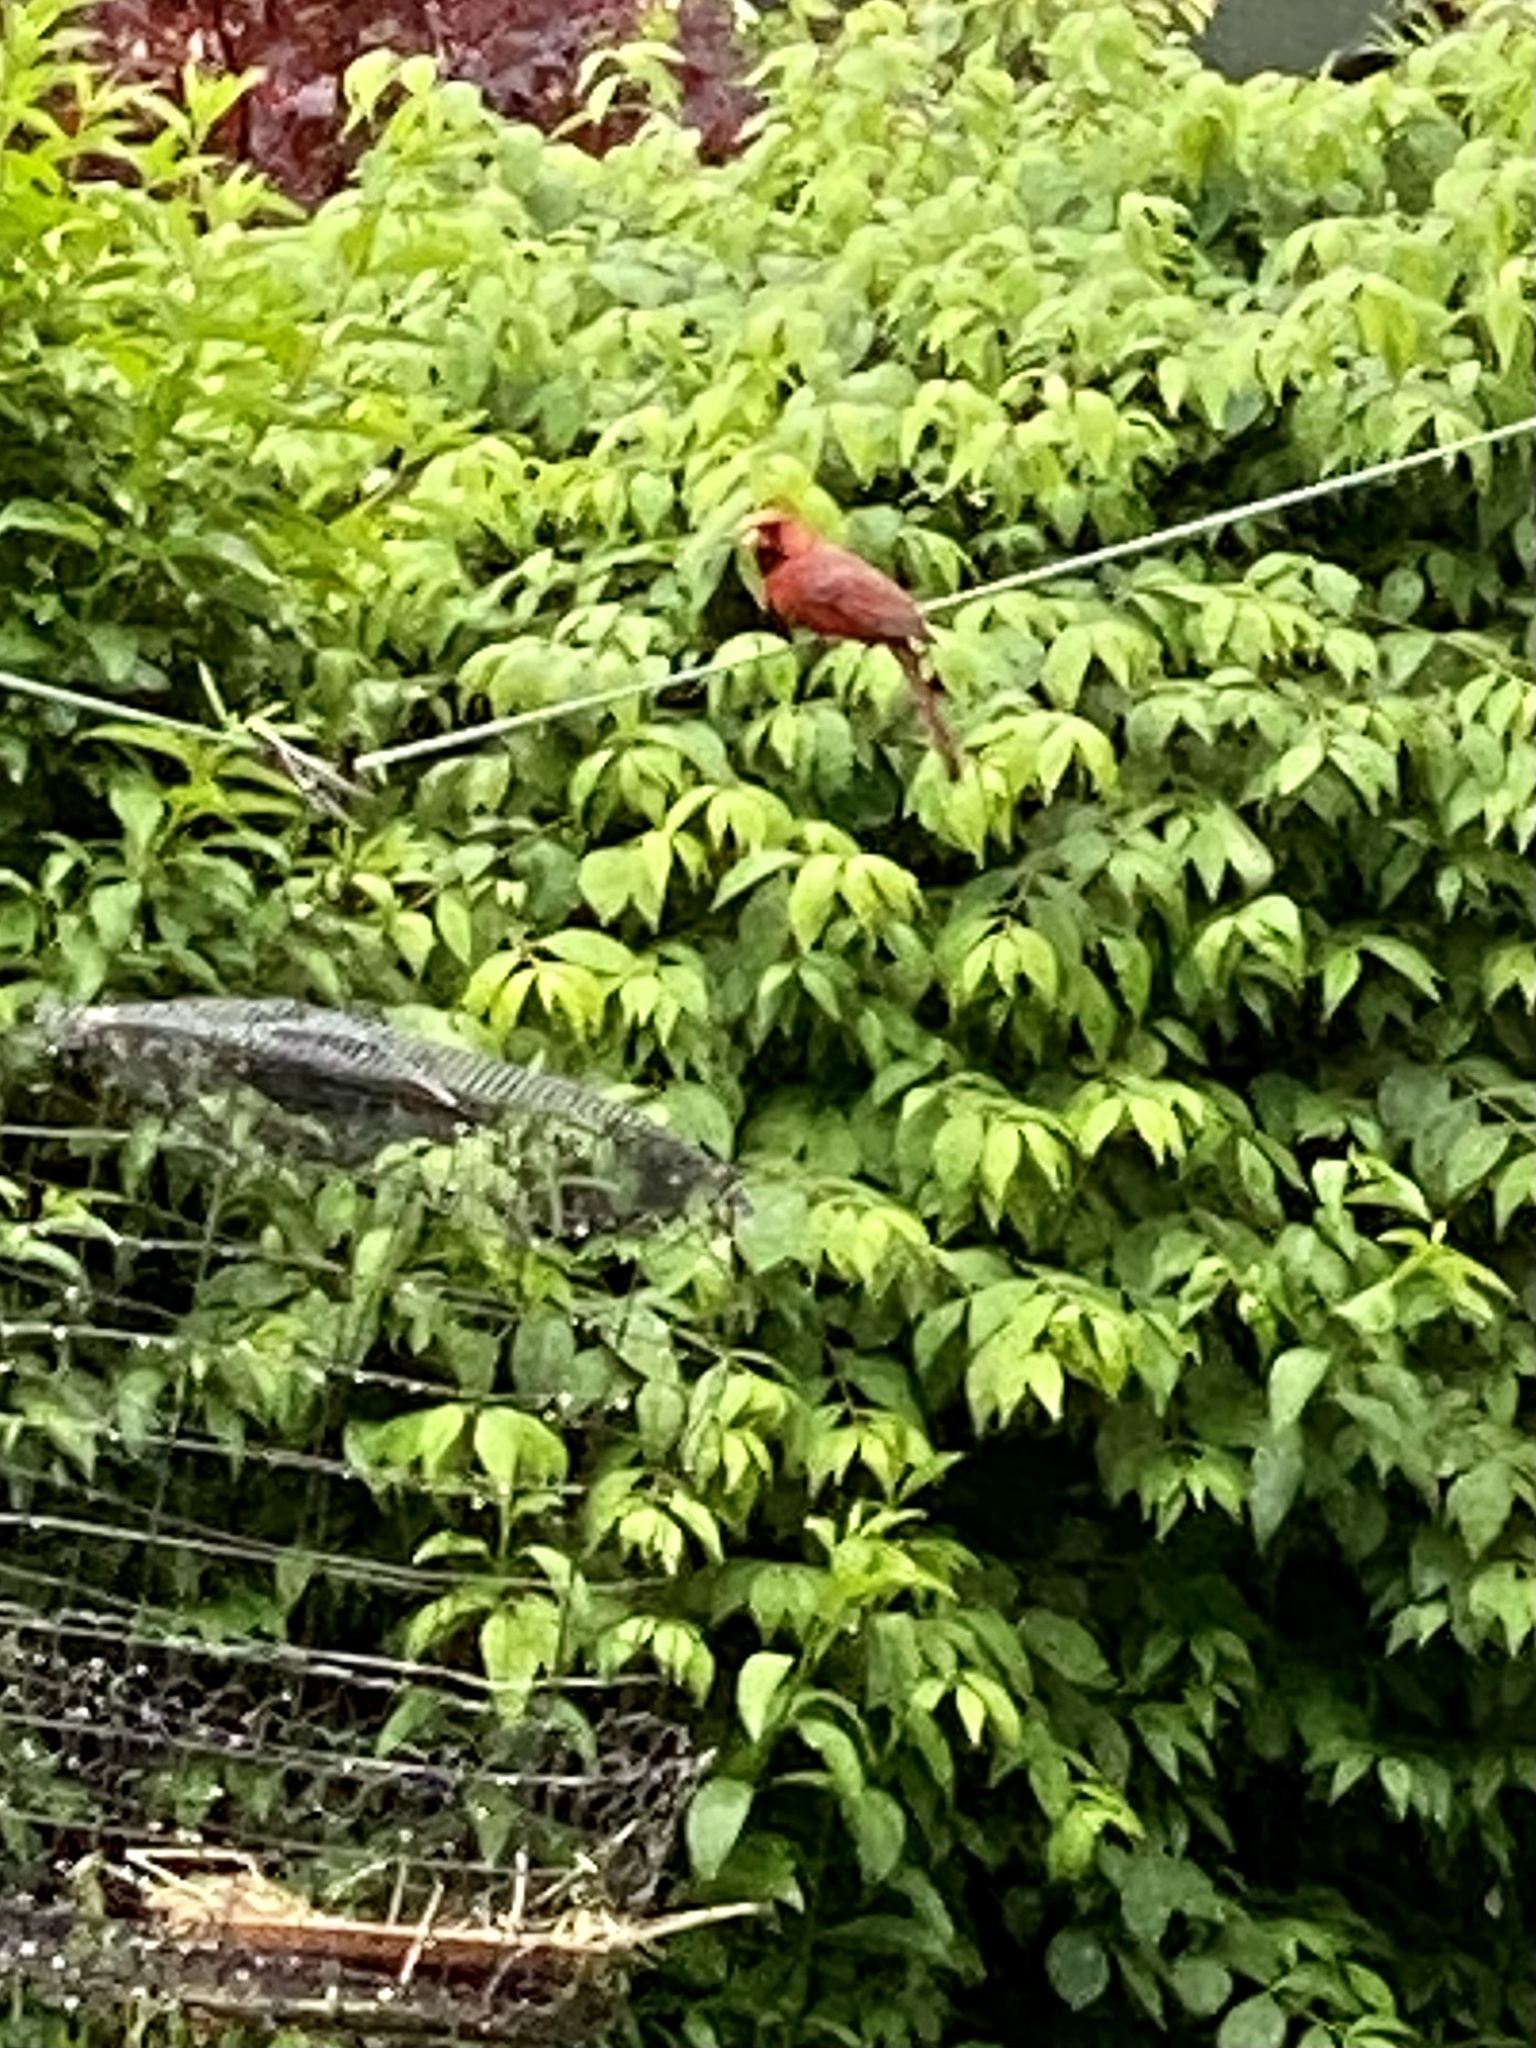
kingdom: Animalia
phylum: Chordata
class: Aves
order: Passeriformes
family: Cardinalidae
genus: Cardinalis
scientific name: Cardinalis cardinalis
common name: Northern cardinal
